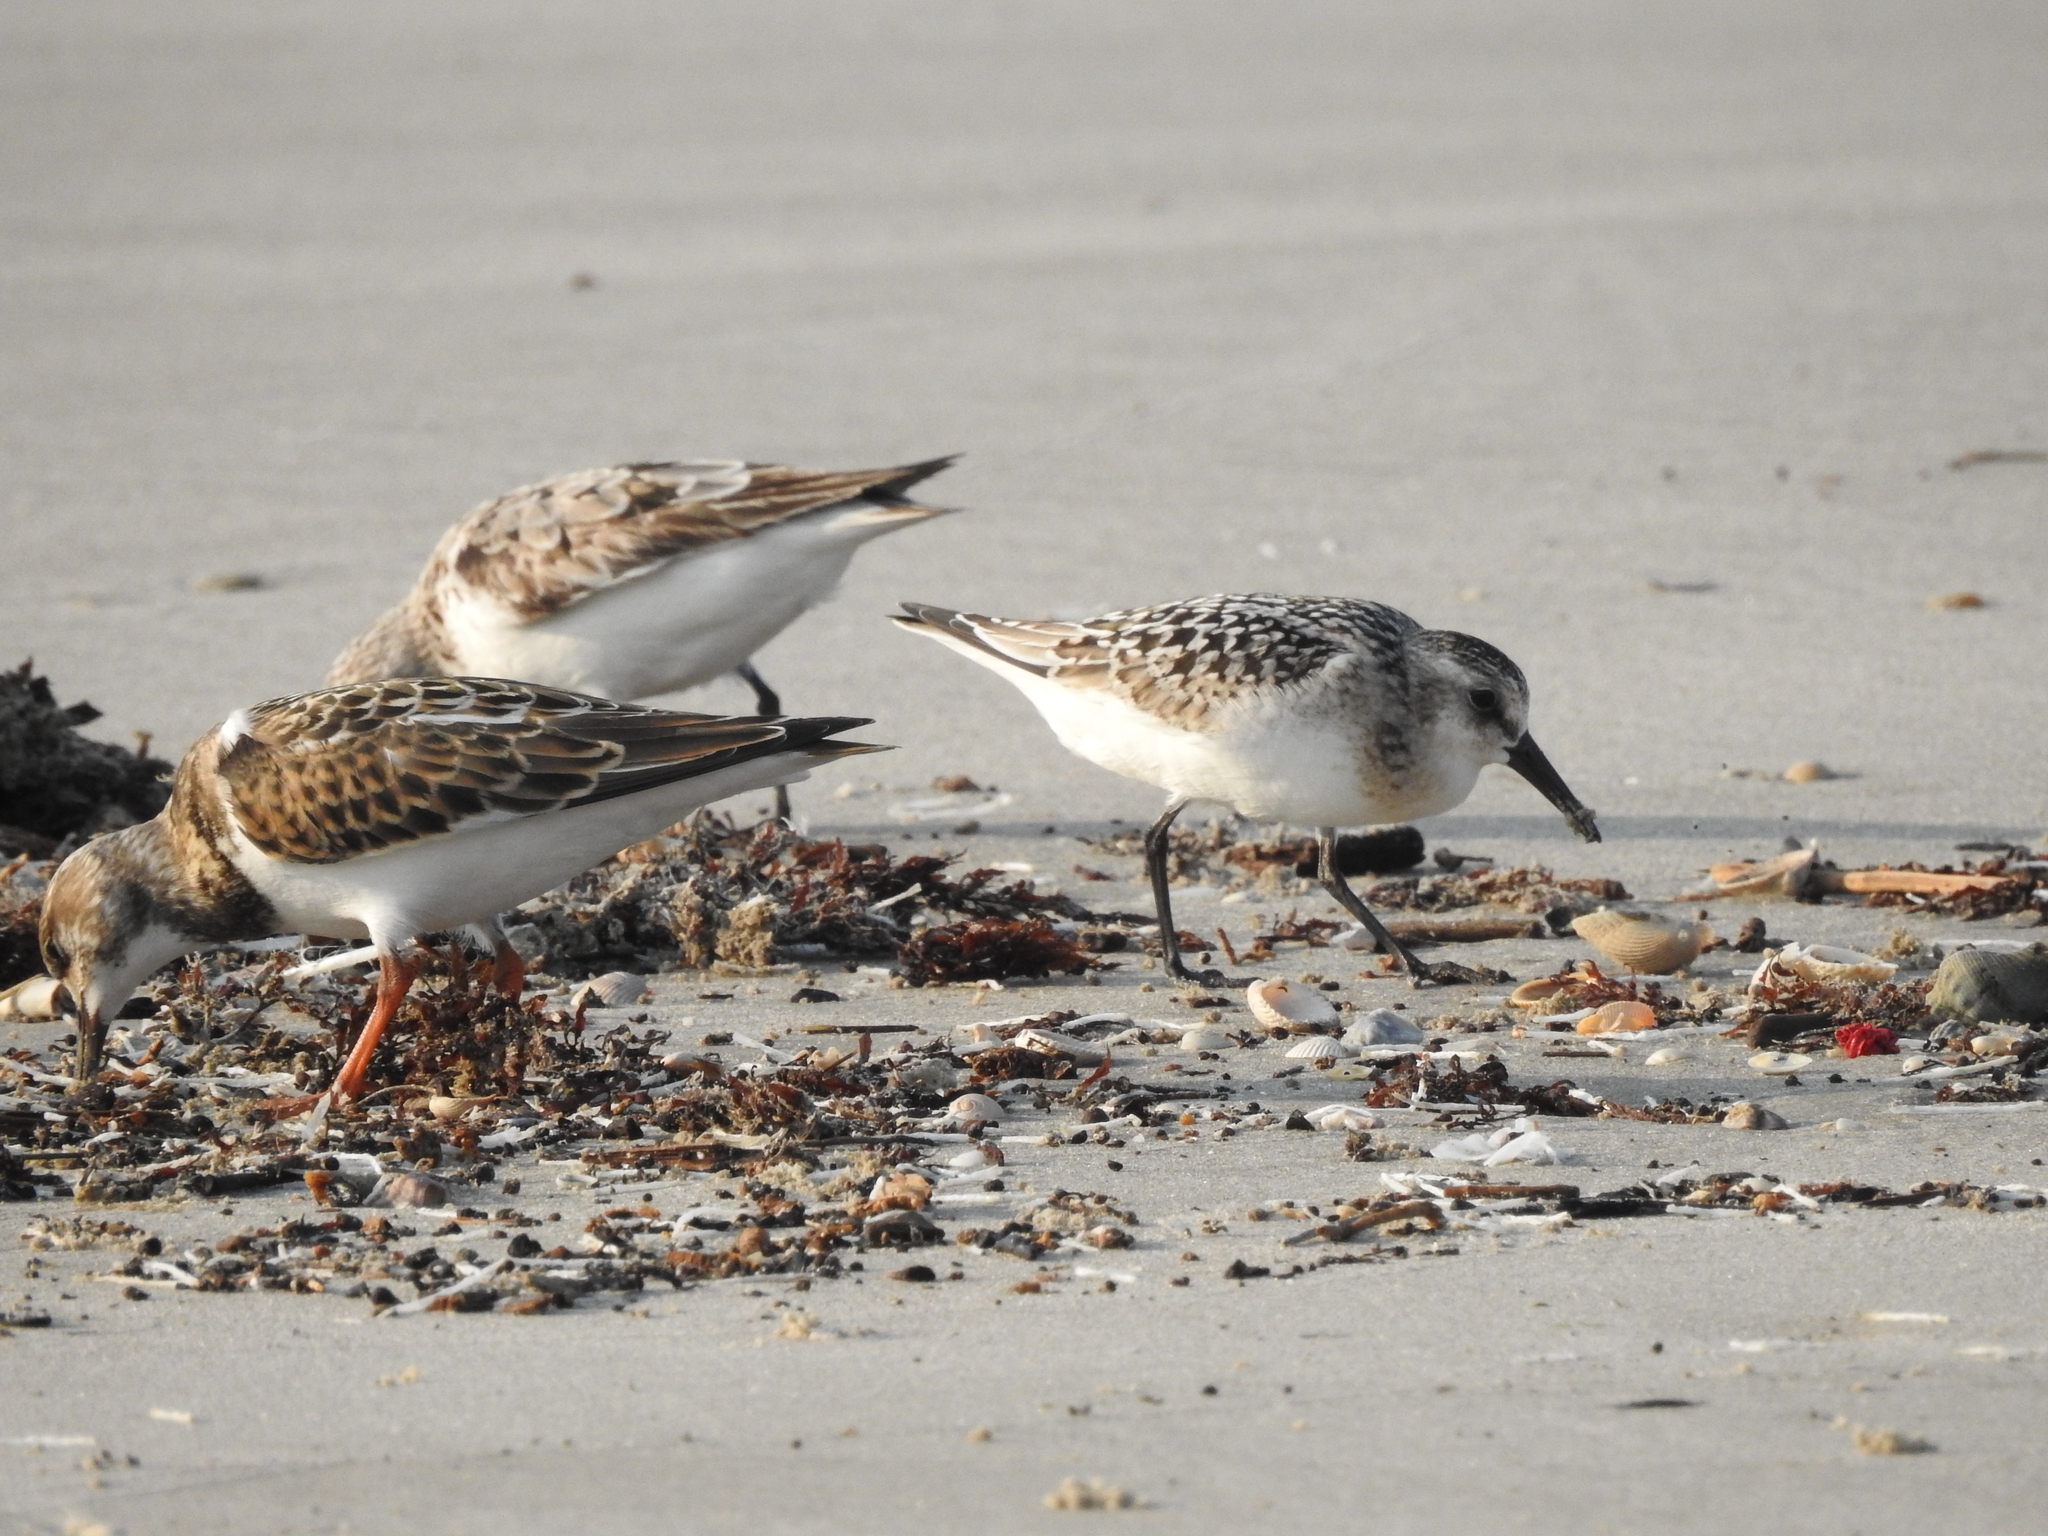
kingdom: Animalia
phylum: Chordata
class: Aves
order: Charadriiformes
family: Scolopacidae
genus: Arenaria
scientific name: Arenaria interpres
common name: Ruddy turnstone
